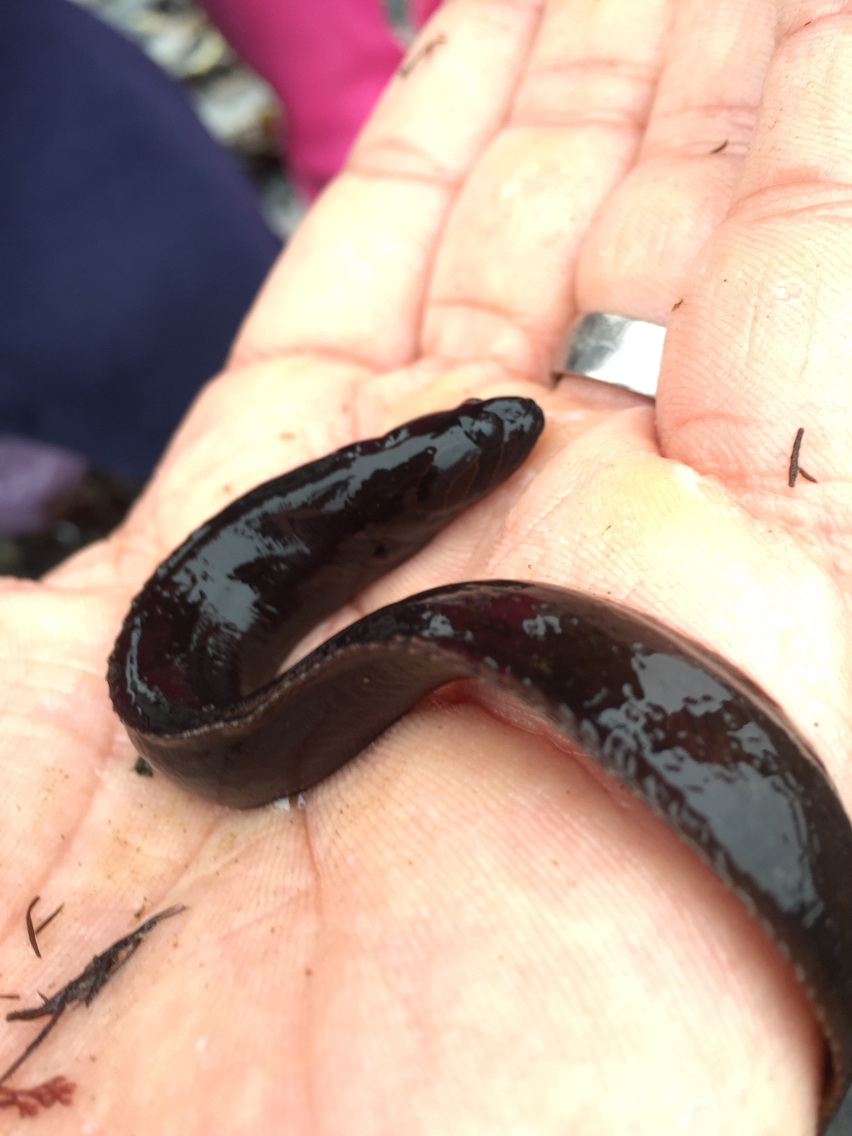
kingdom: Animalia
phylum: Chordata
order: Perciformes
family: Stichaeidae
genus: Xiphister
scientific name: Xiphister atropurpureus
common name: Black prickleback
